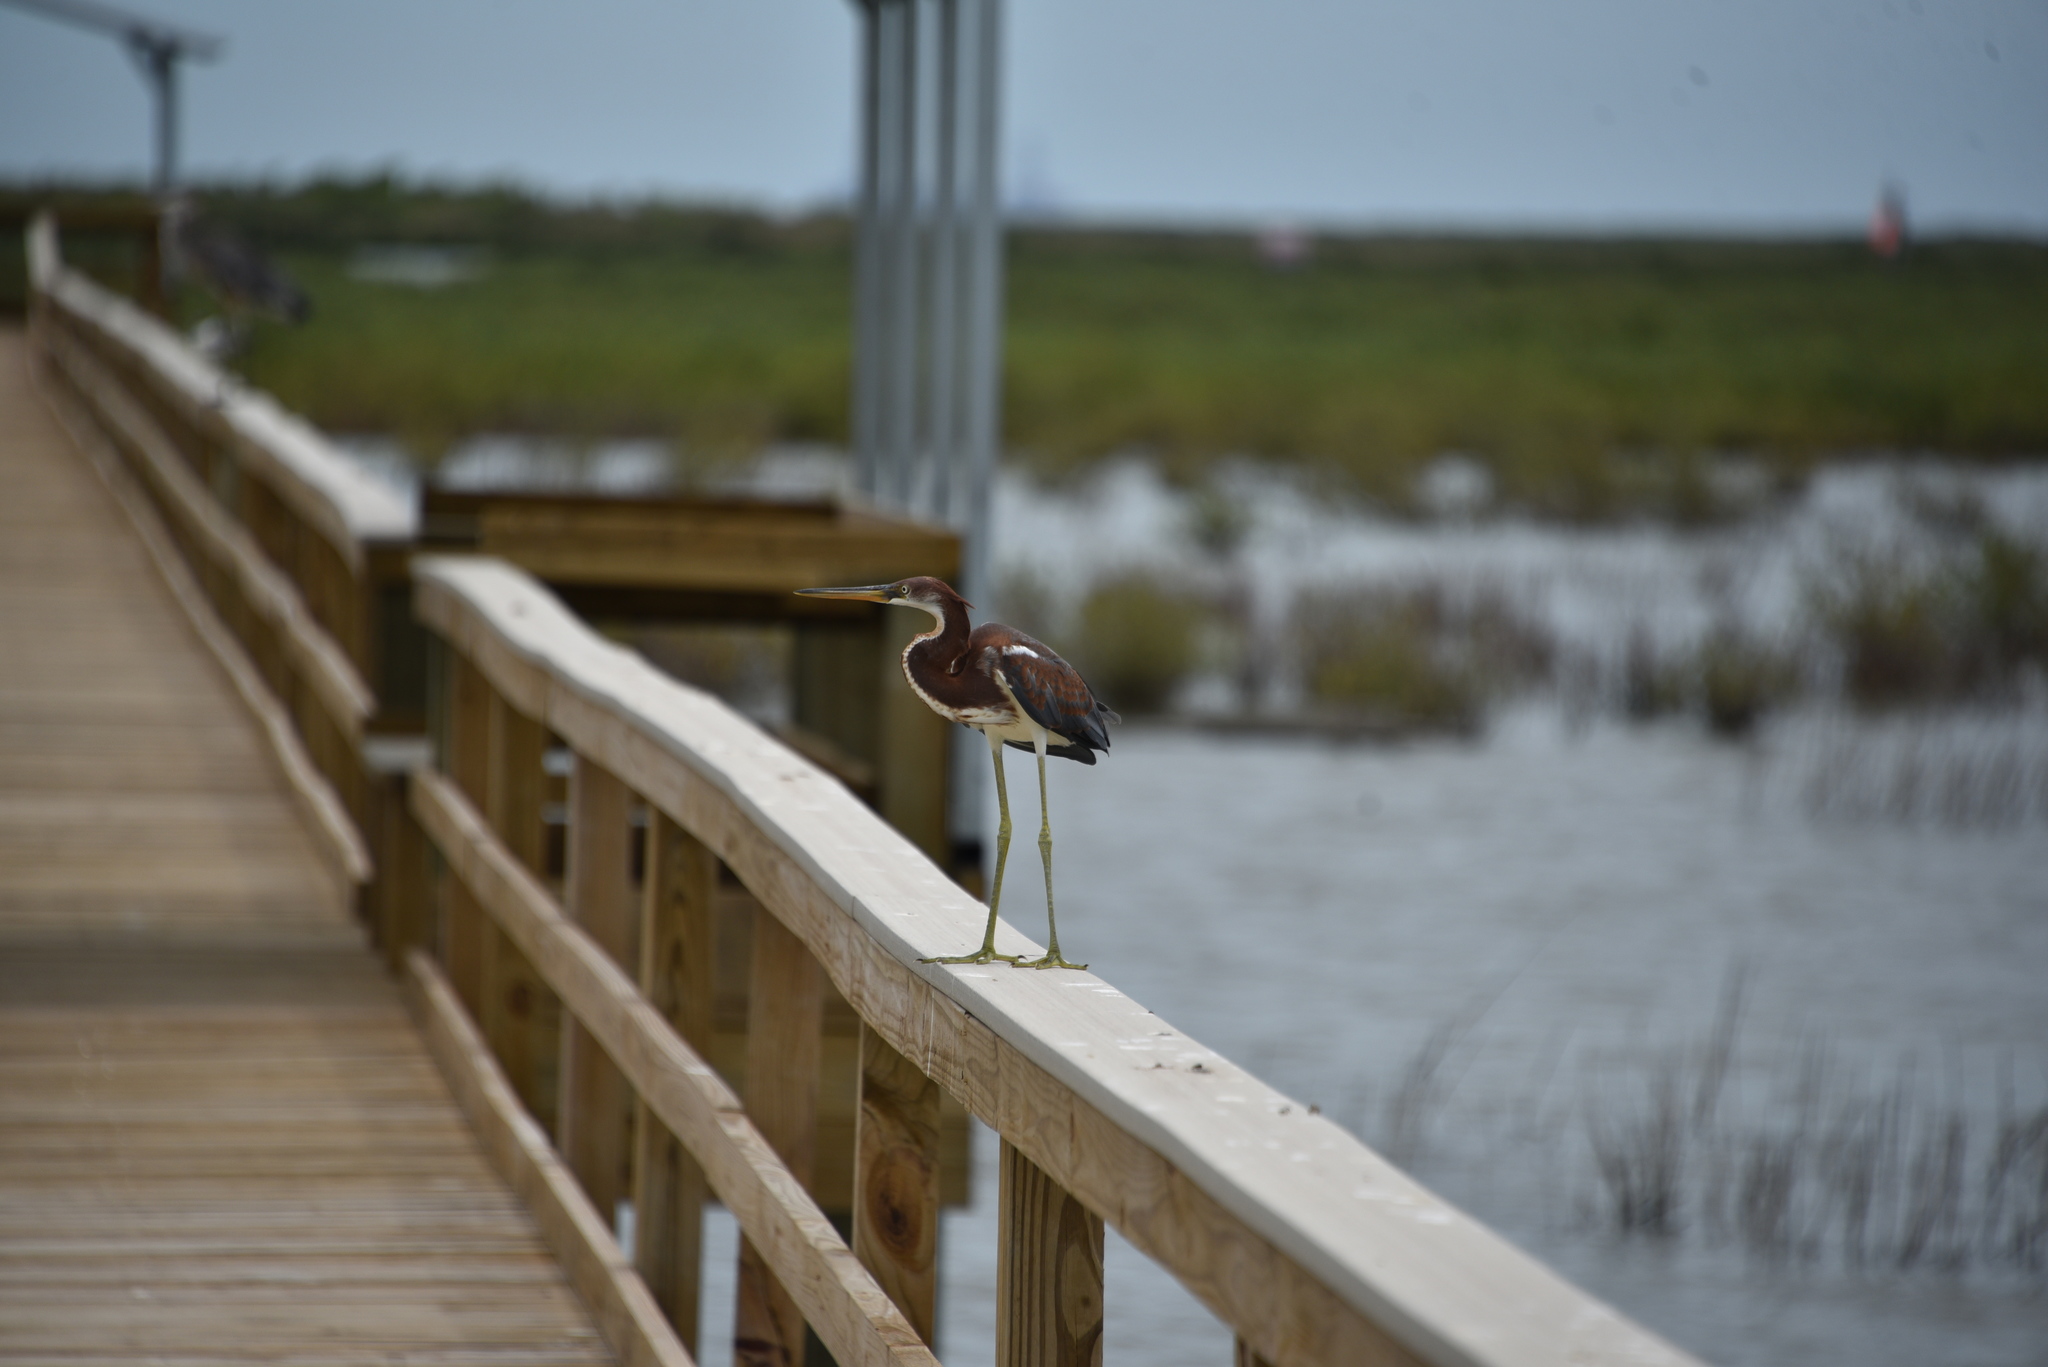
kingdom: Animalia
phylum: Chordata
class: Aves
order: Pelecaniformes
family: Ardeidae
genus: Egretta
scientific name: Egretta tricolor
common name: Tricolored heron
